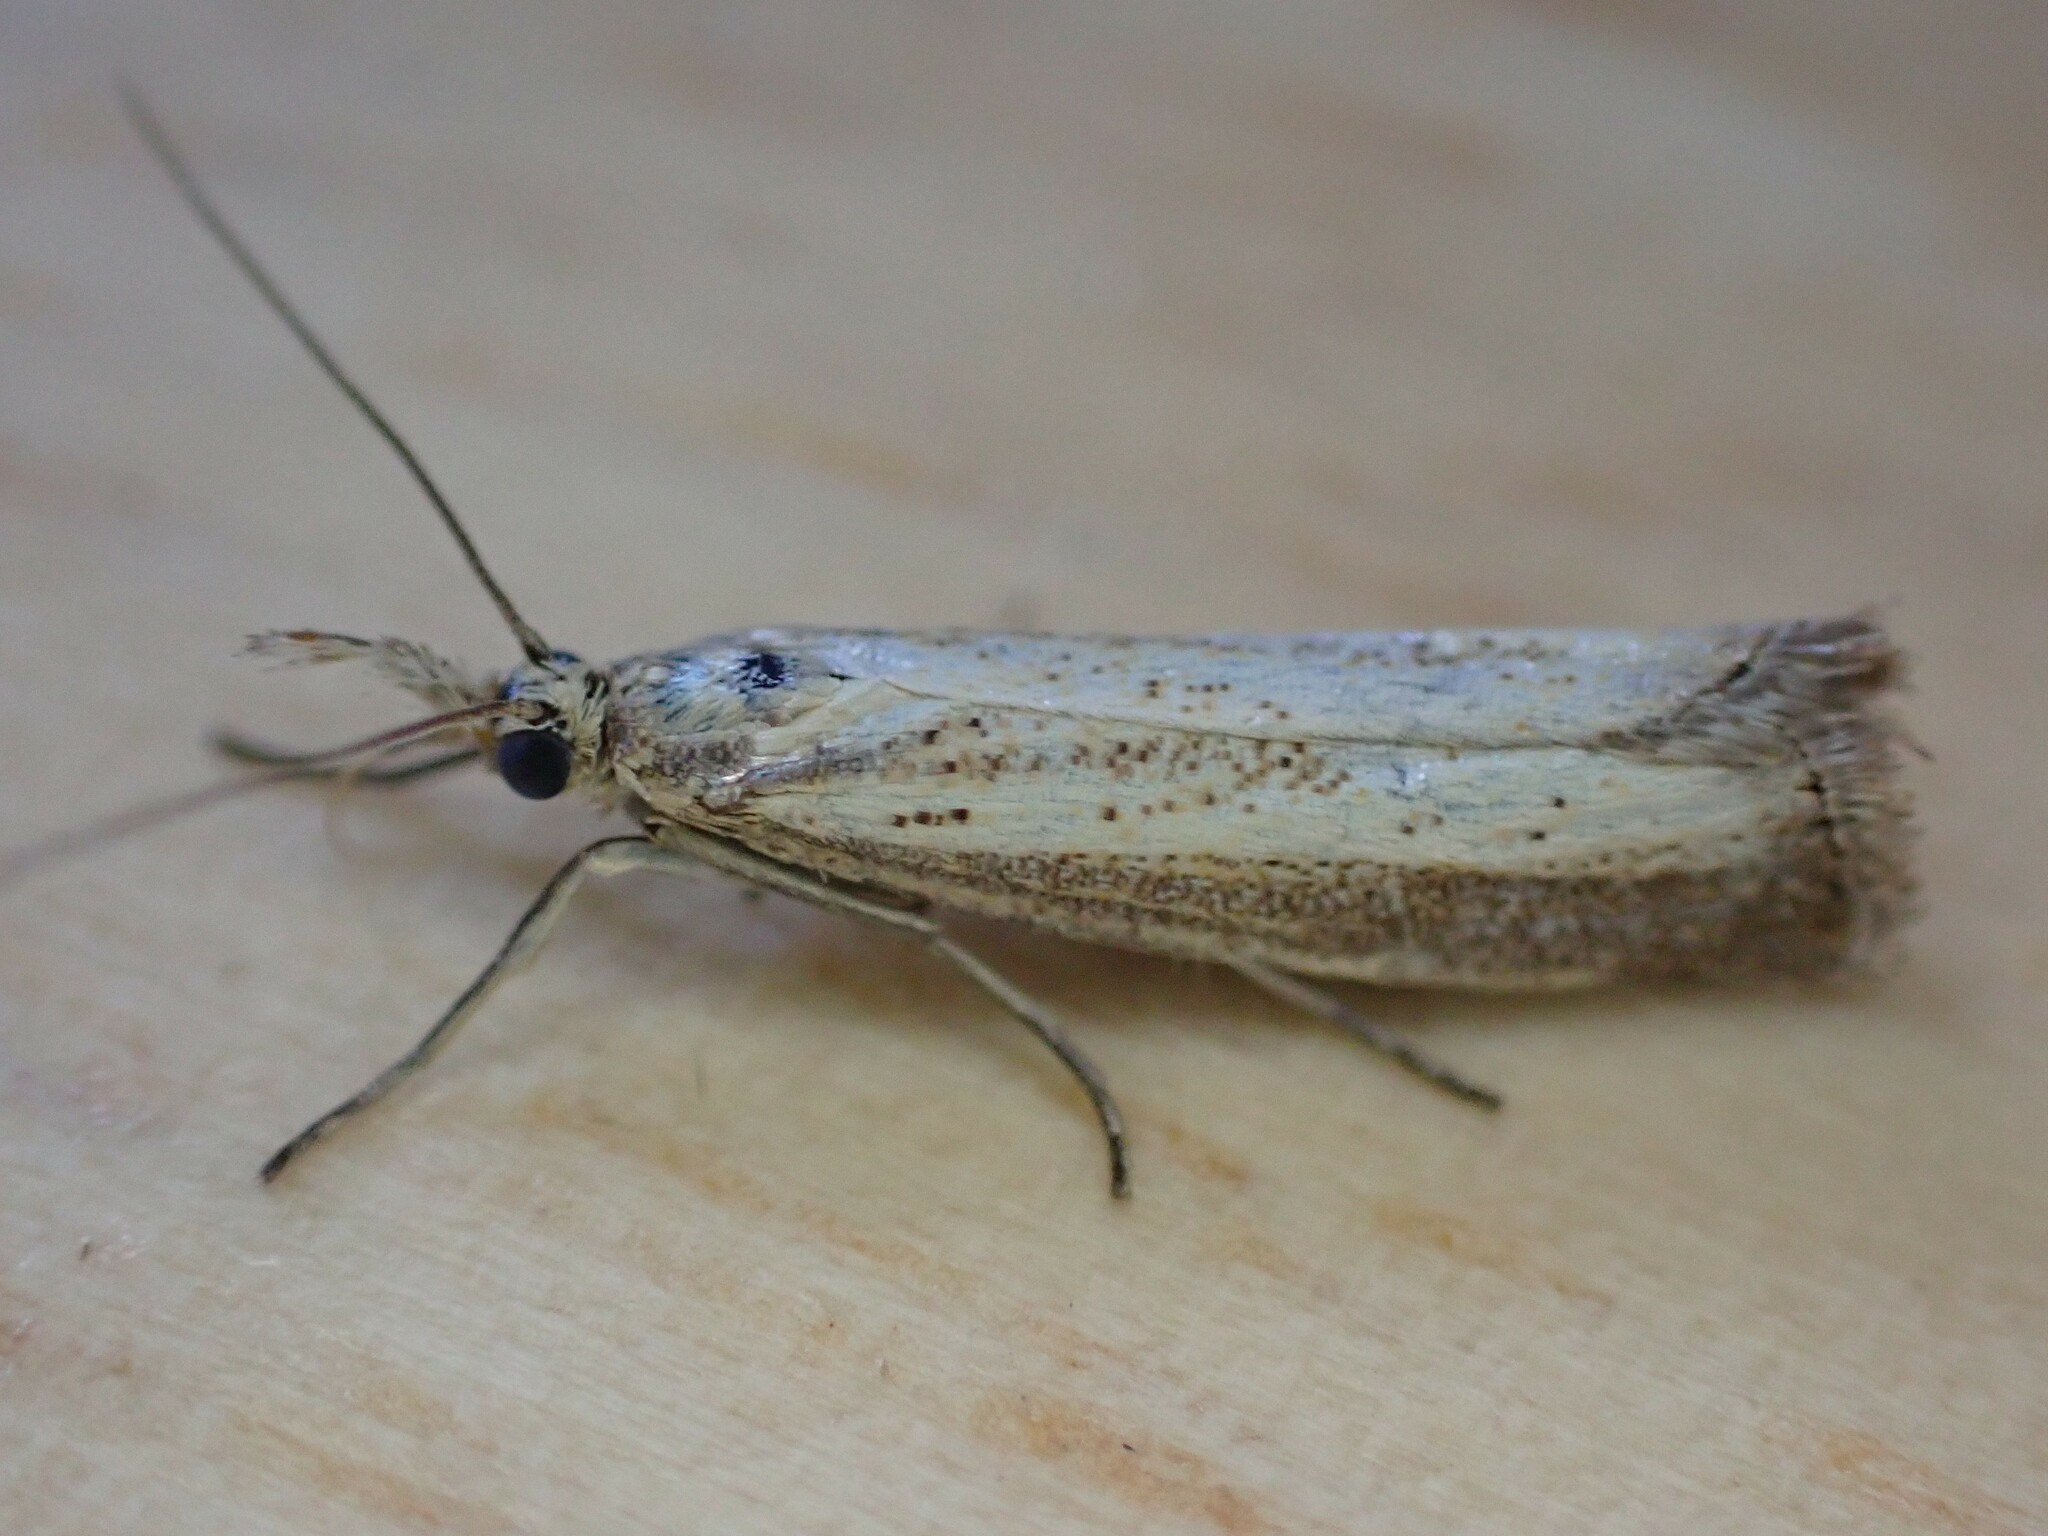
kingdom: Animalia
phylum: Arthropoda
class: Insecta
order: Lepidoptera
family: Crambidae
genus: Agriphila
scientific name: Agriphila straminella
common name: Straw grass-veneer
